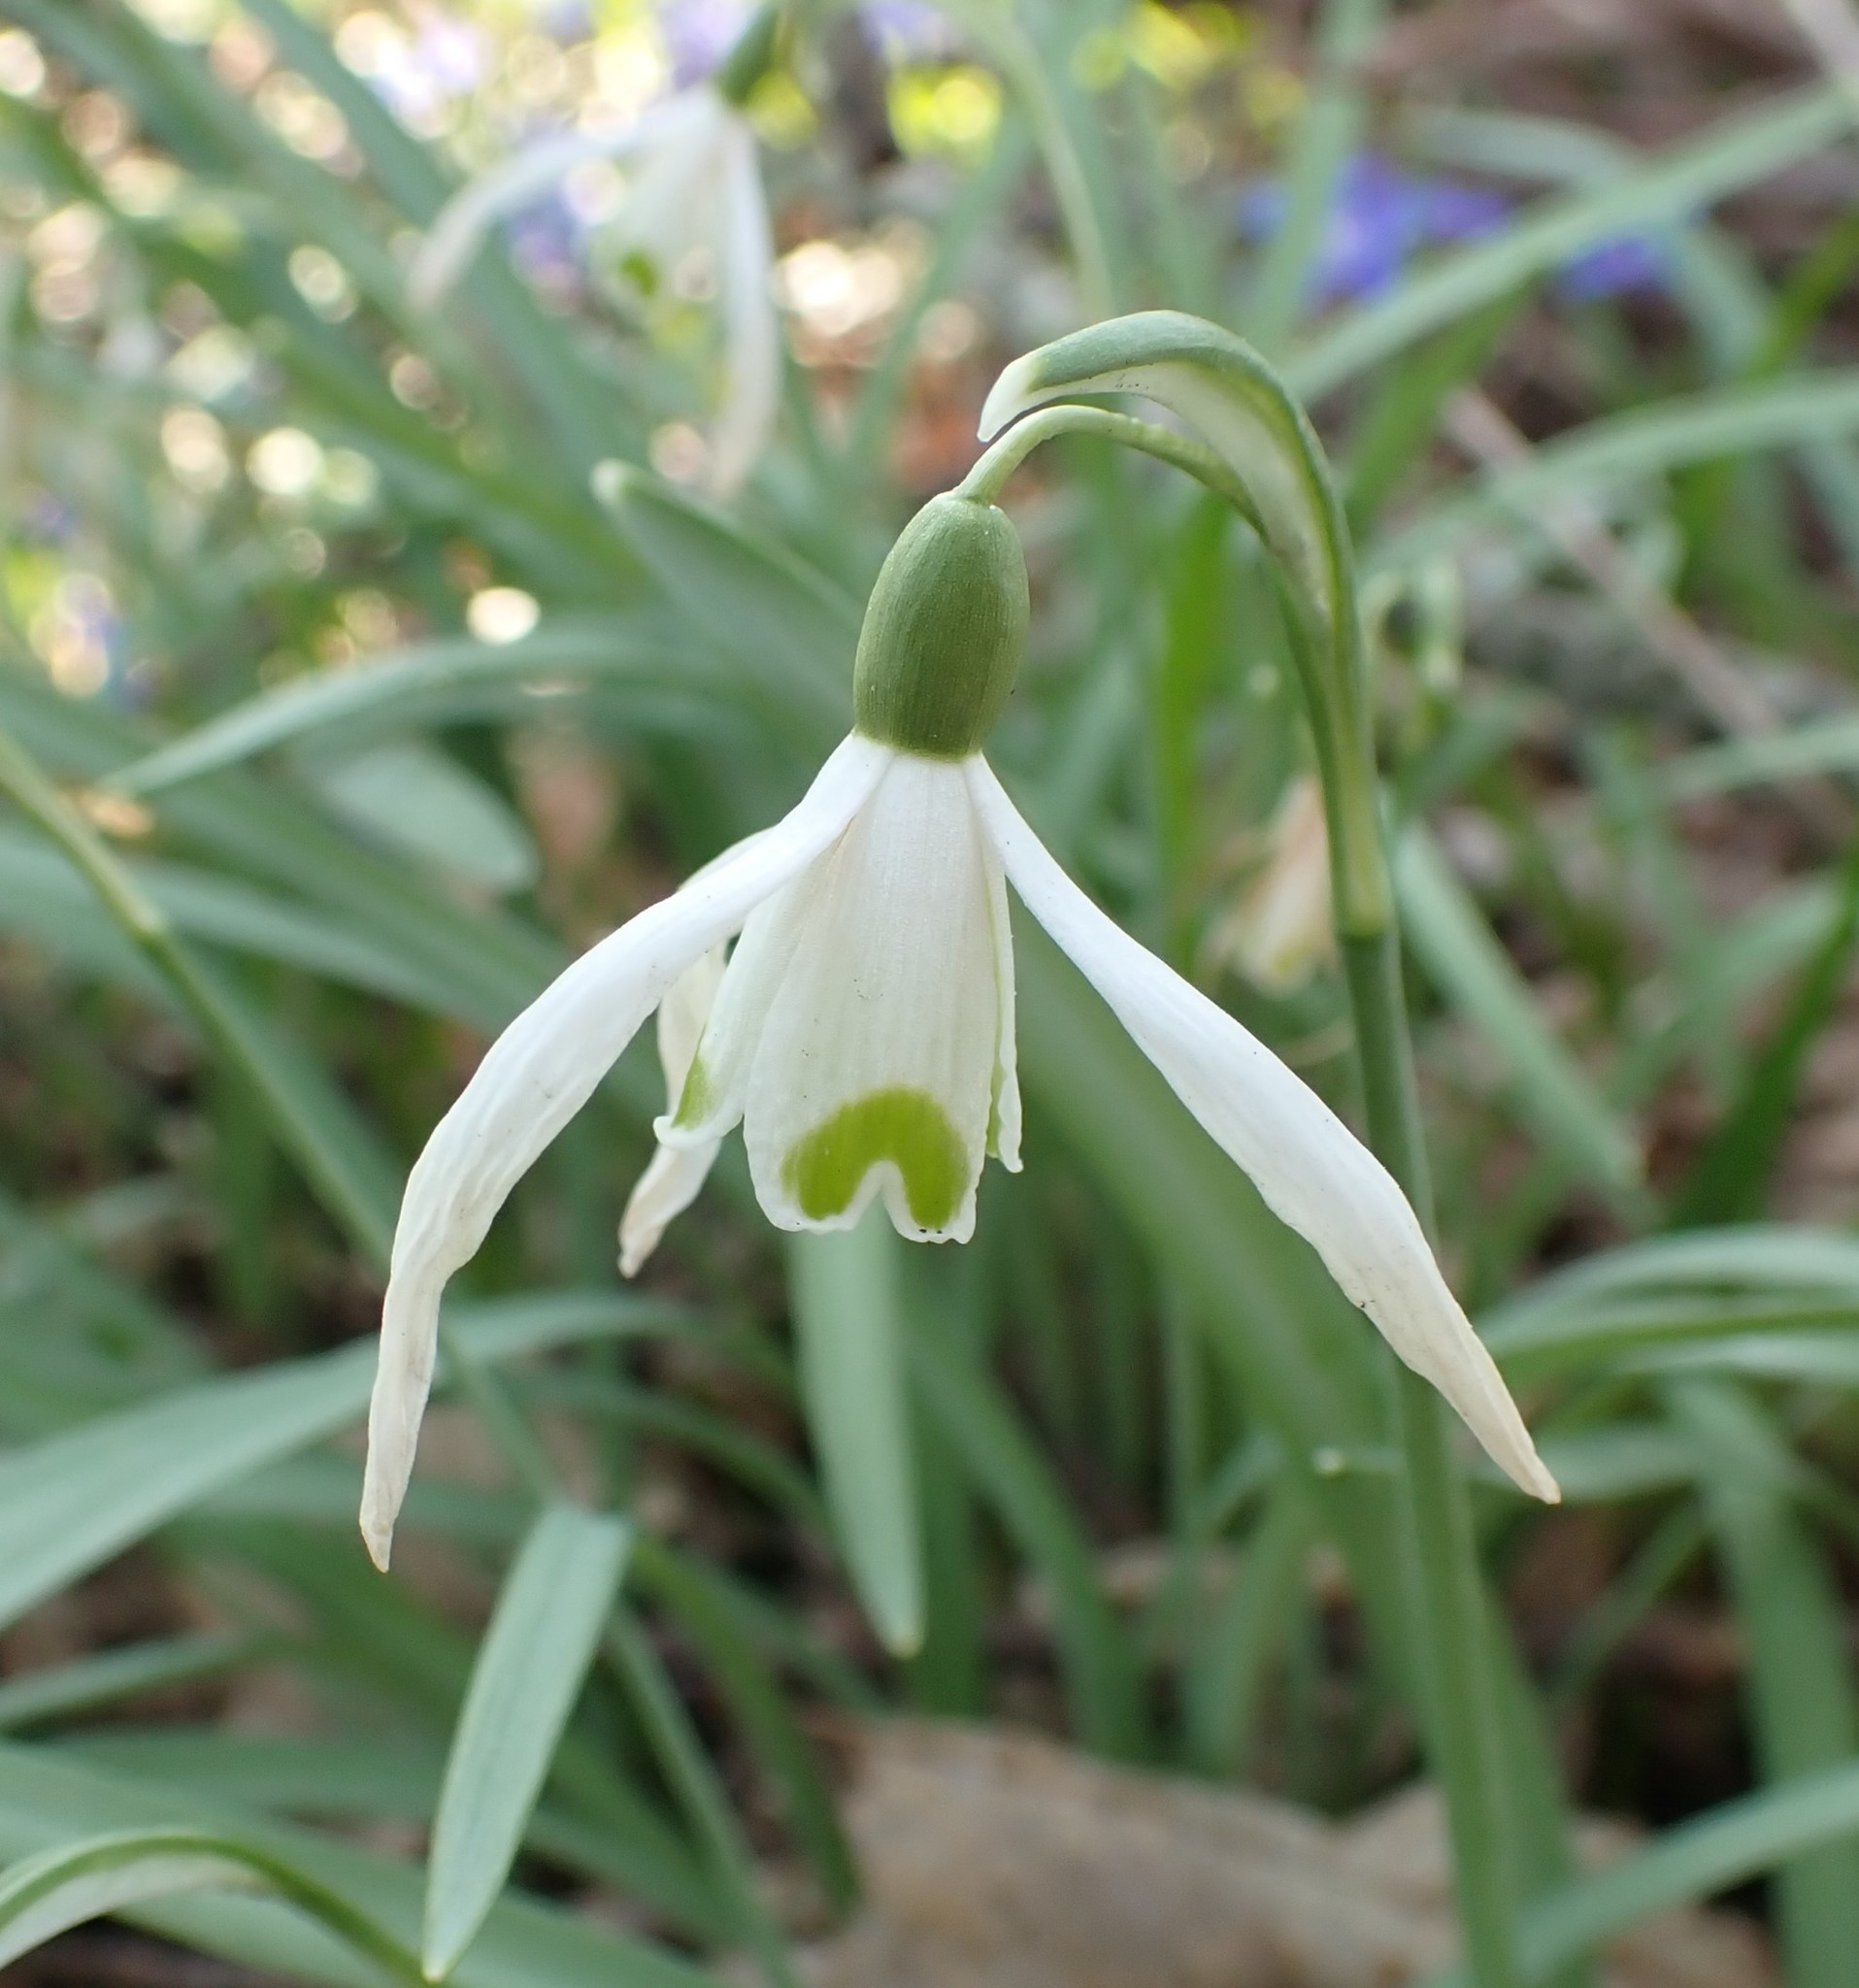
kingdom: Plantae
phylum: Tracheophyta
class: Liliopsida
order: Asparagales
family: Amaryllidaceae
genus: Galanthus
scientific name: Galanthus nivalis
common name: Snowdrop
